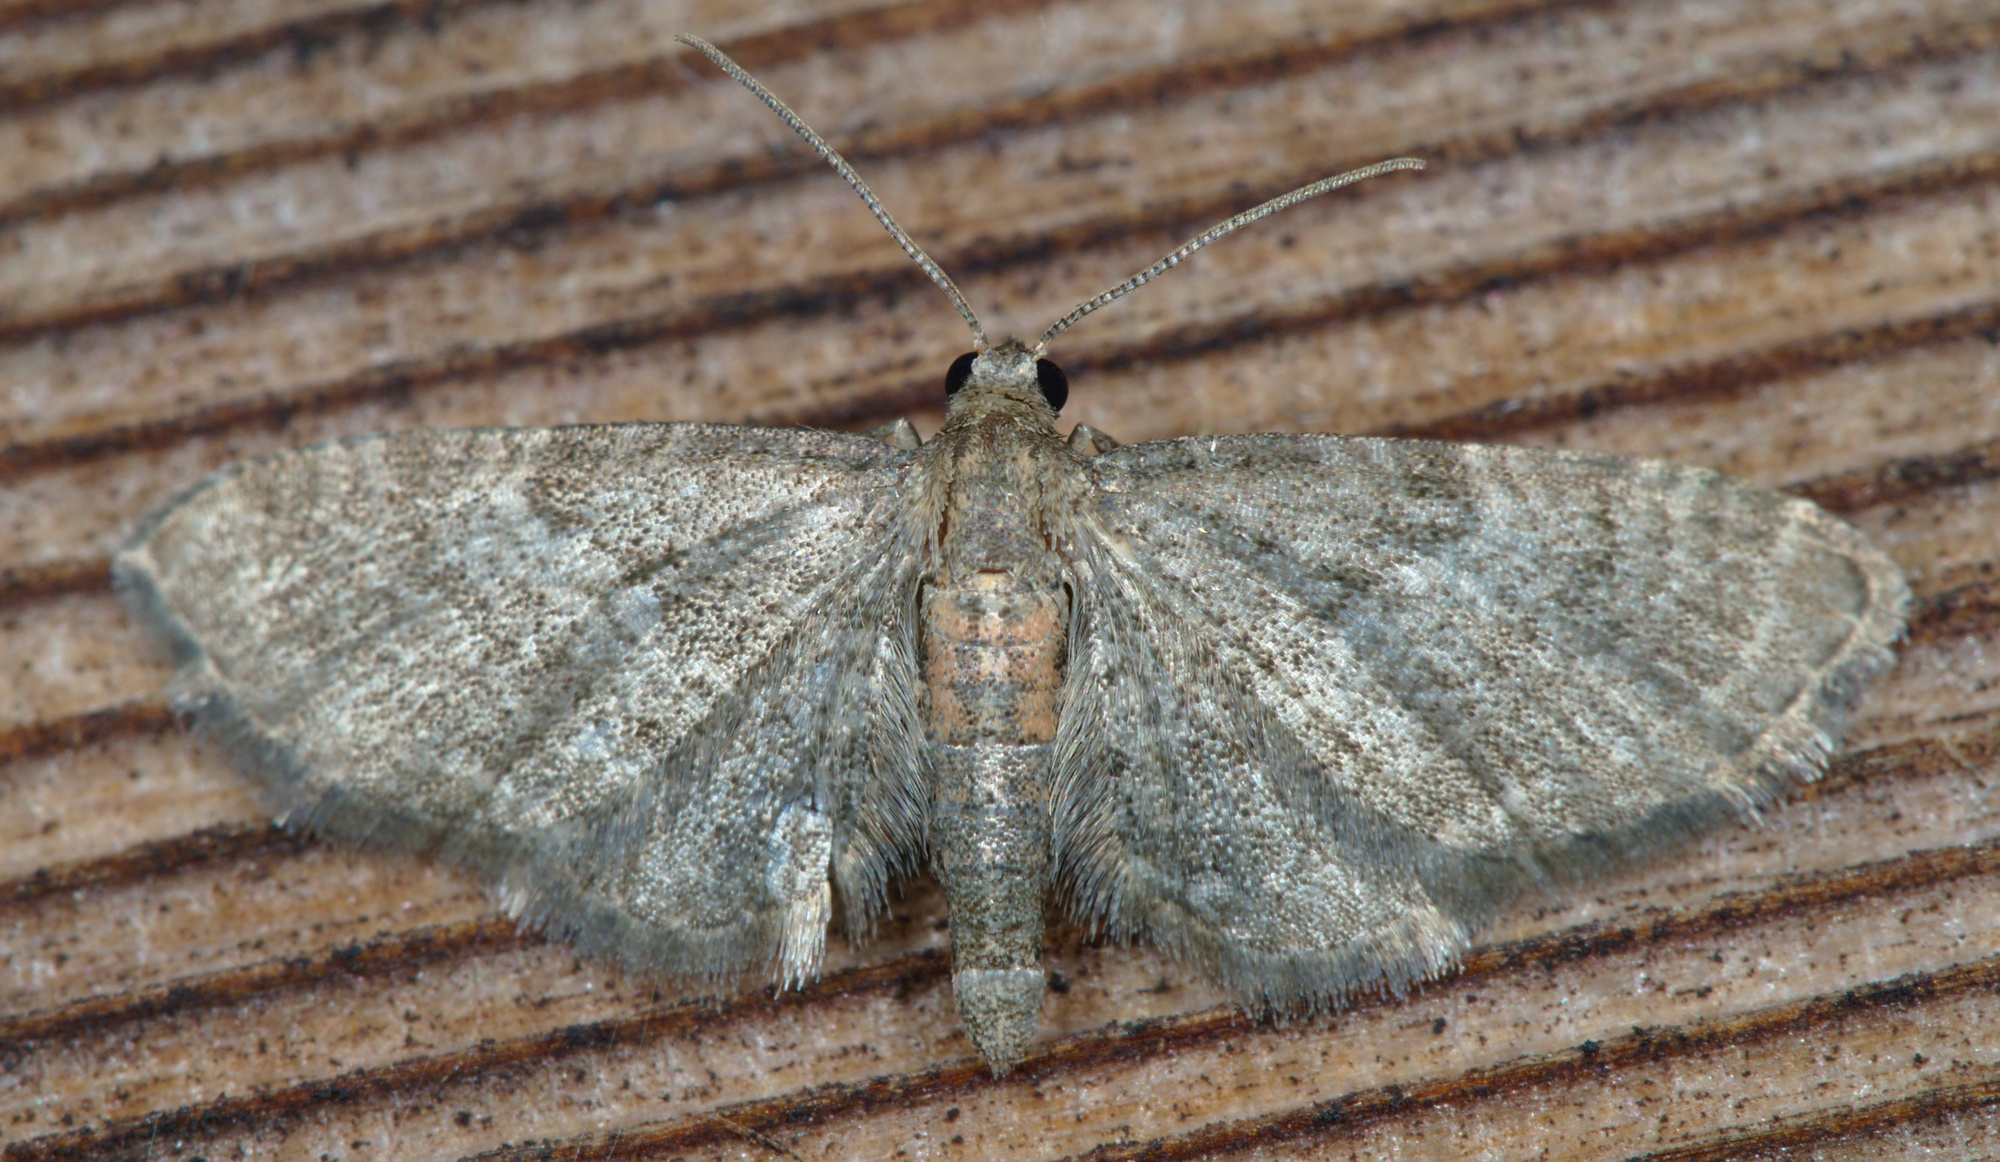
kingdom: Animalia
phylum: Arthropoda
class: Insecta
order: Lepidoptera
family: Geometridae
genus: Eupithecia
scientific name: Eupithecia haworthiata
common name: Haworth's pug
